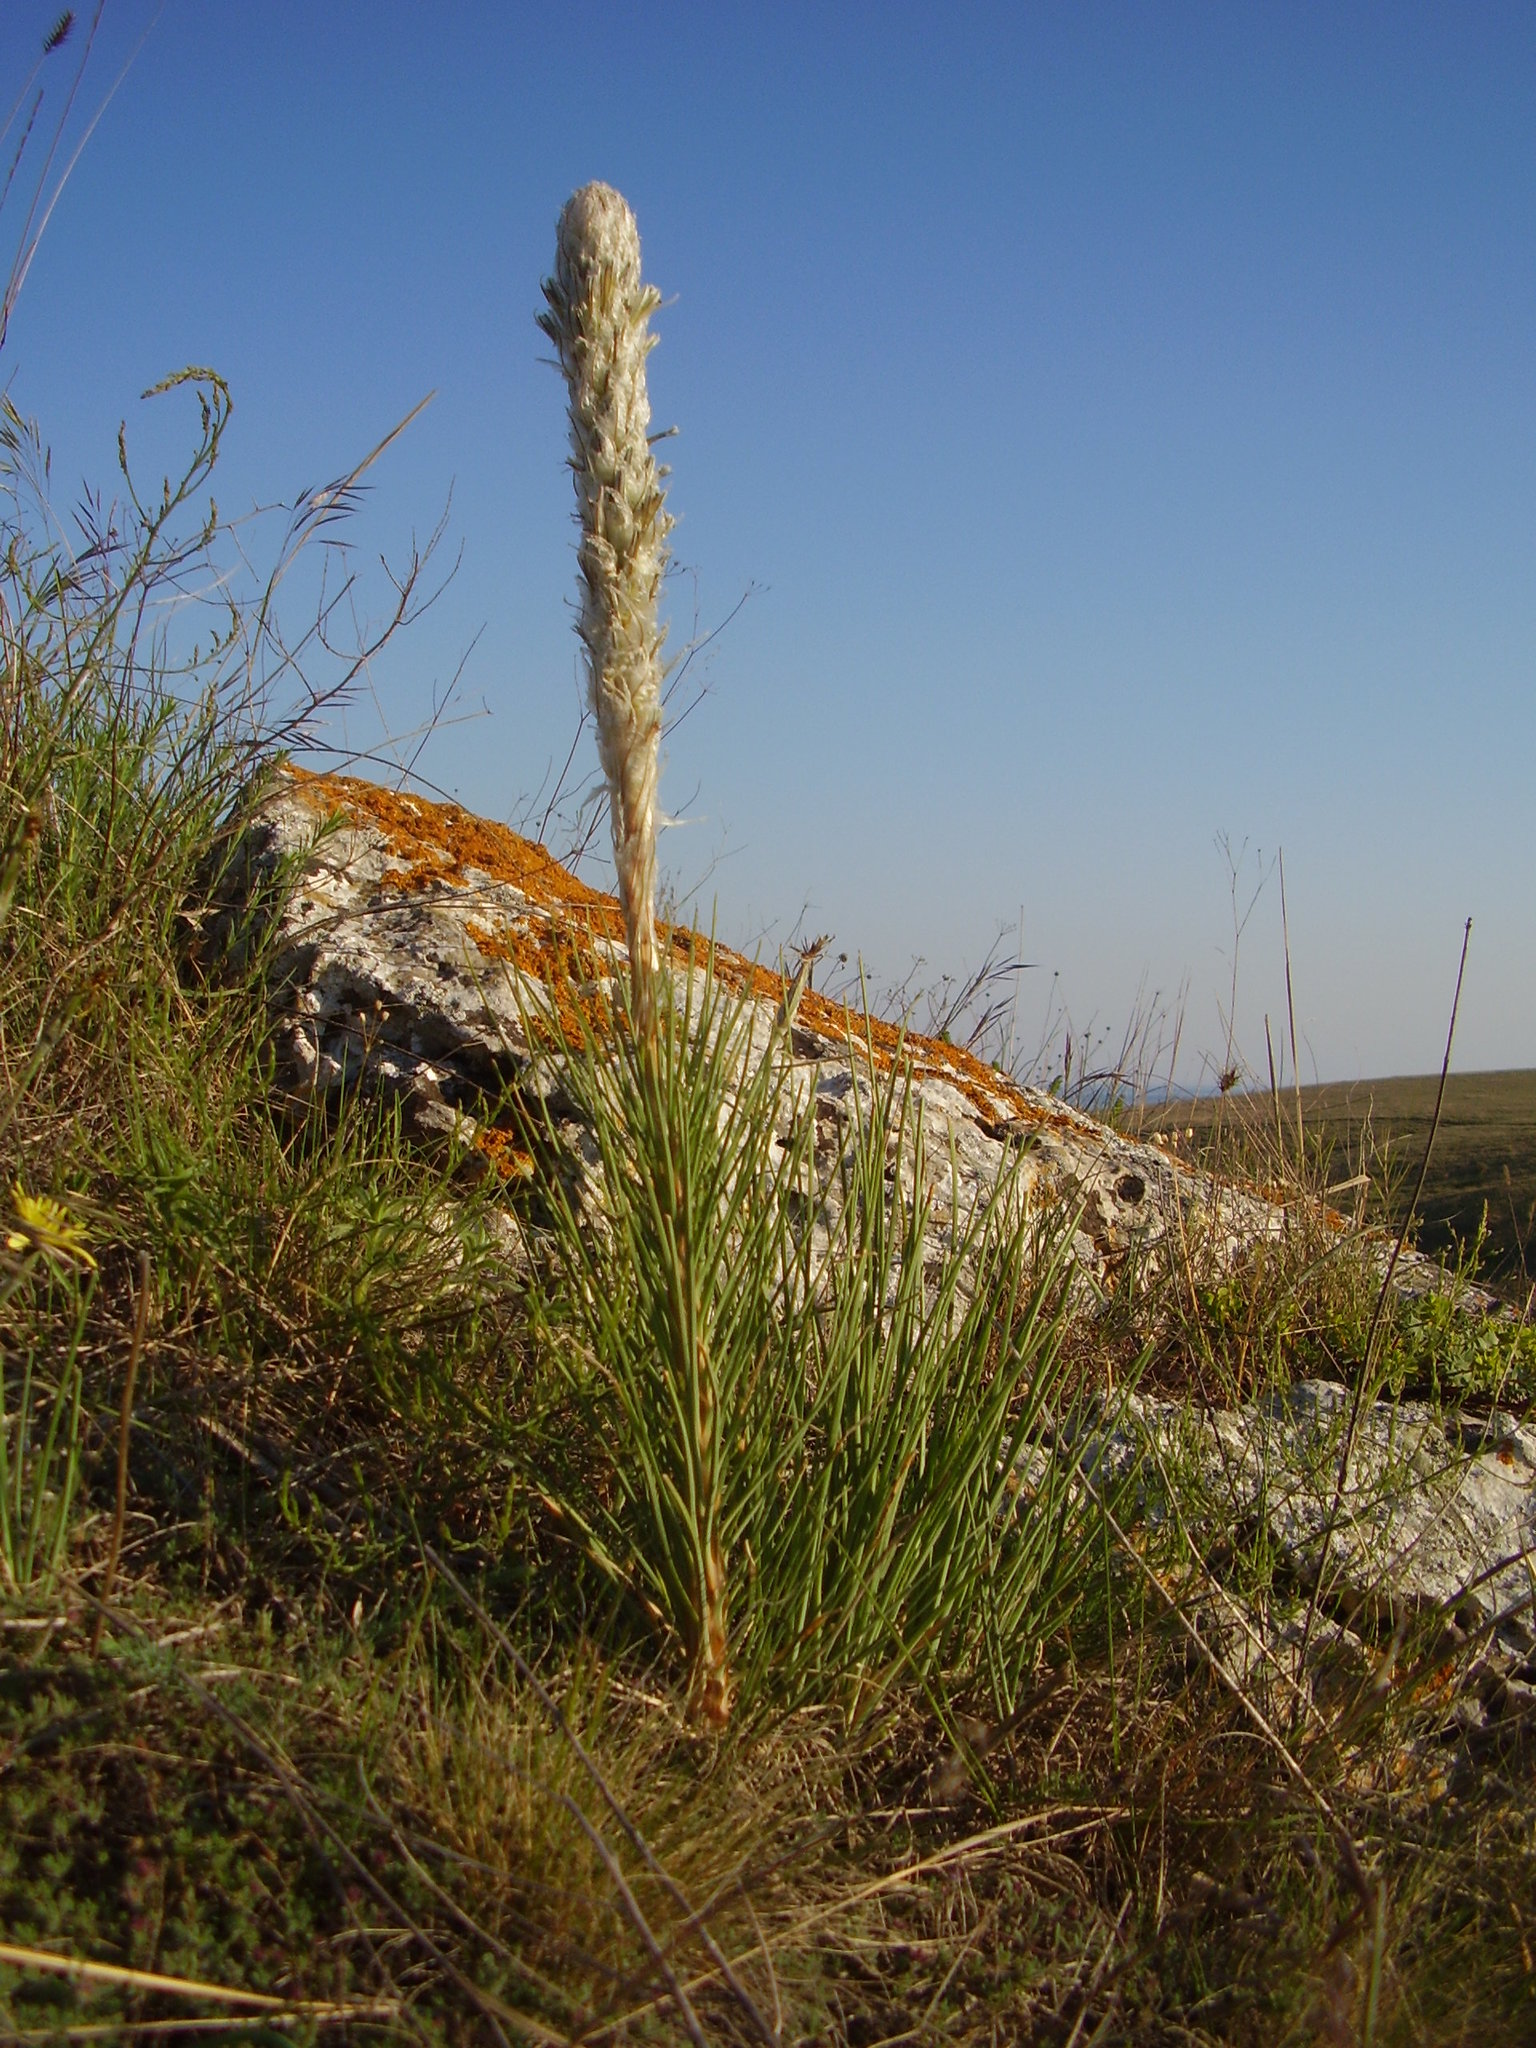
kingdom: Plantae
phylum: Tracheophyta
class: Liliopsida
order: Asparagales
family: Asphodelaceae
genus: Asphodeline
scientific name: Asphodeline taurica
